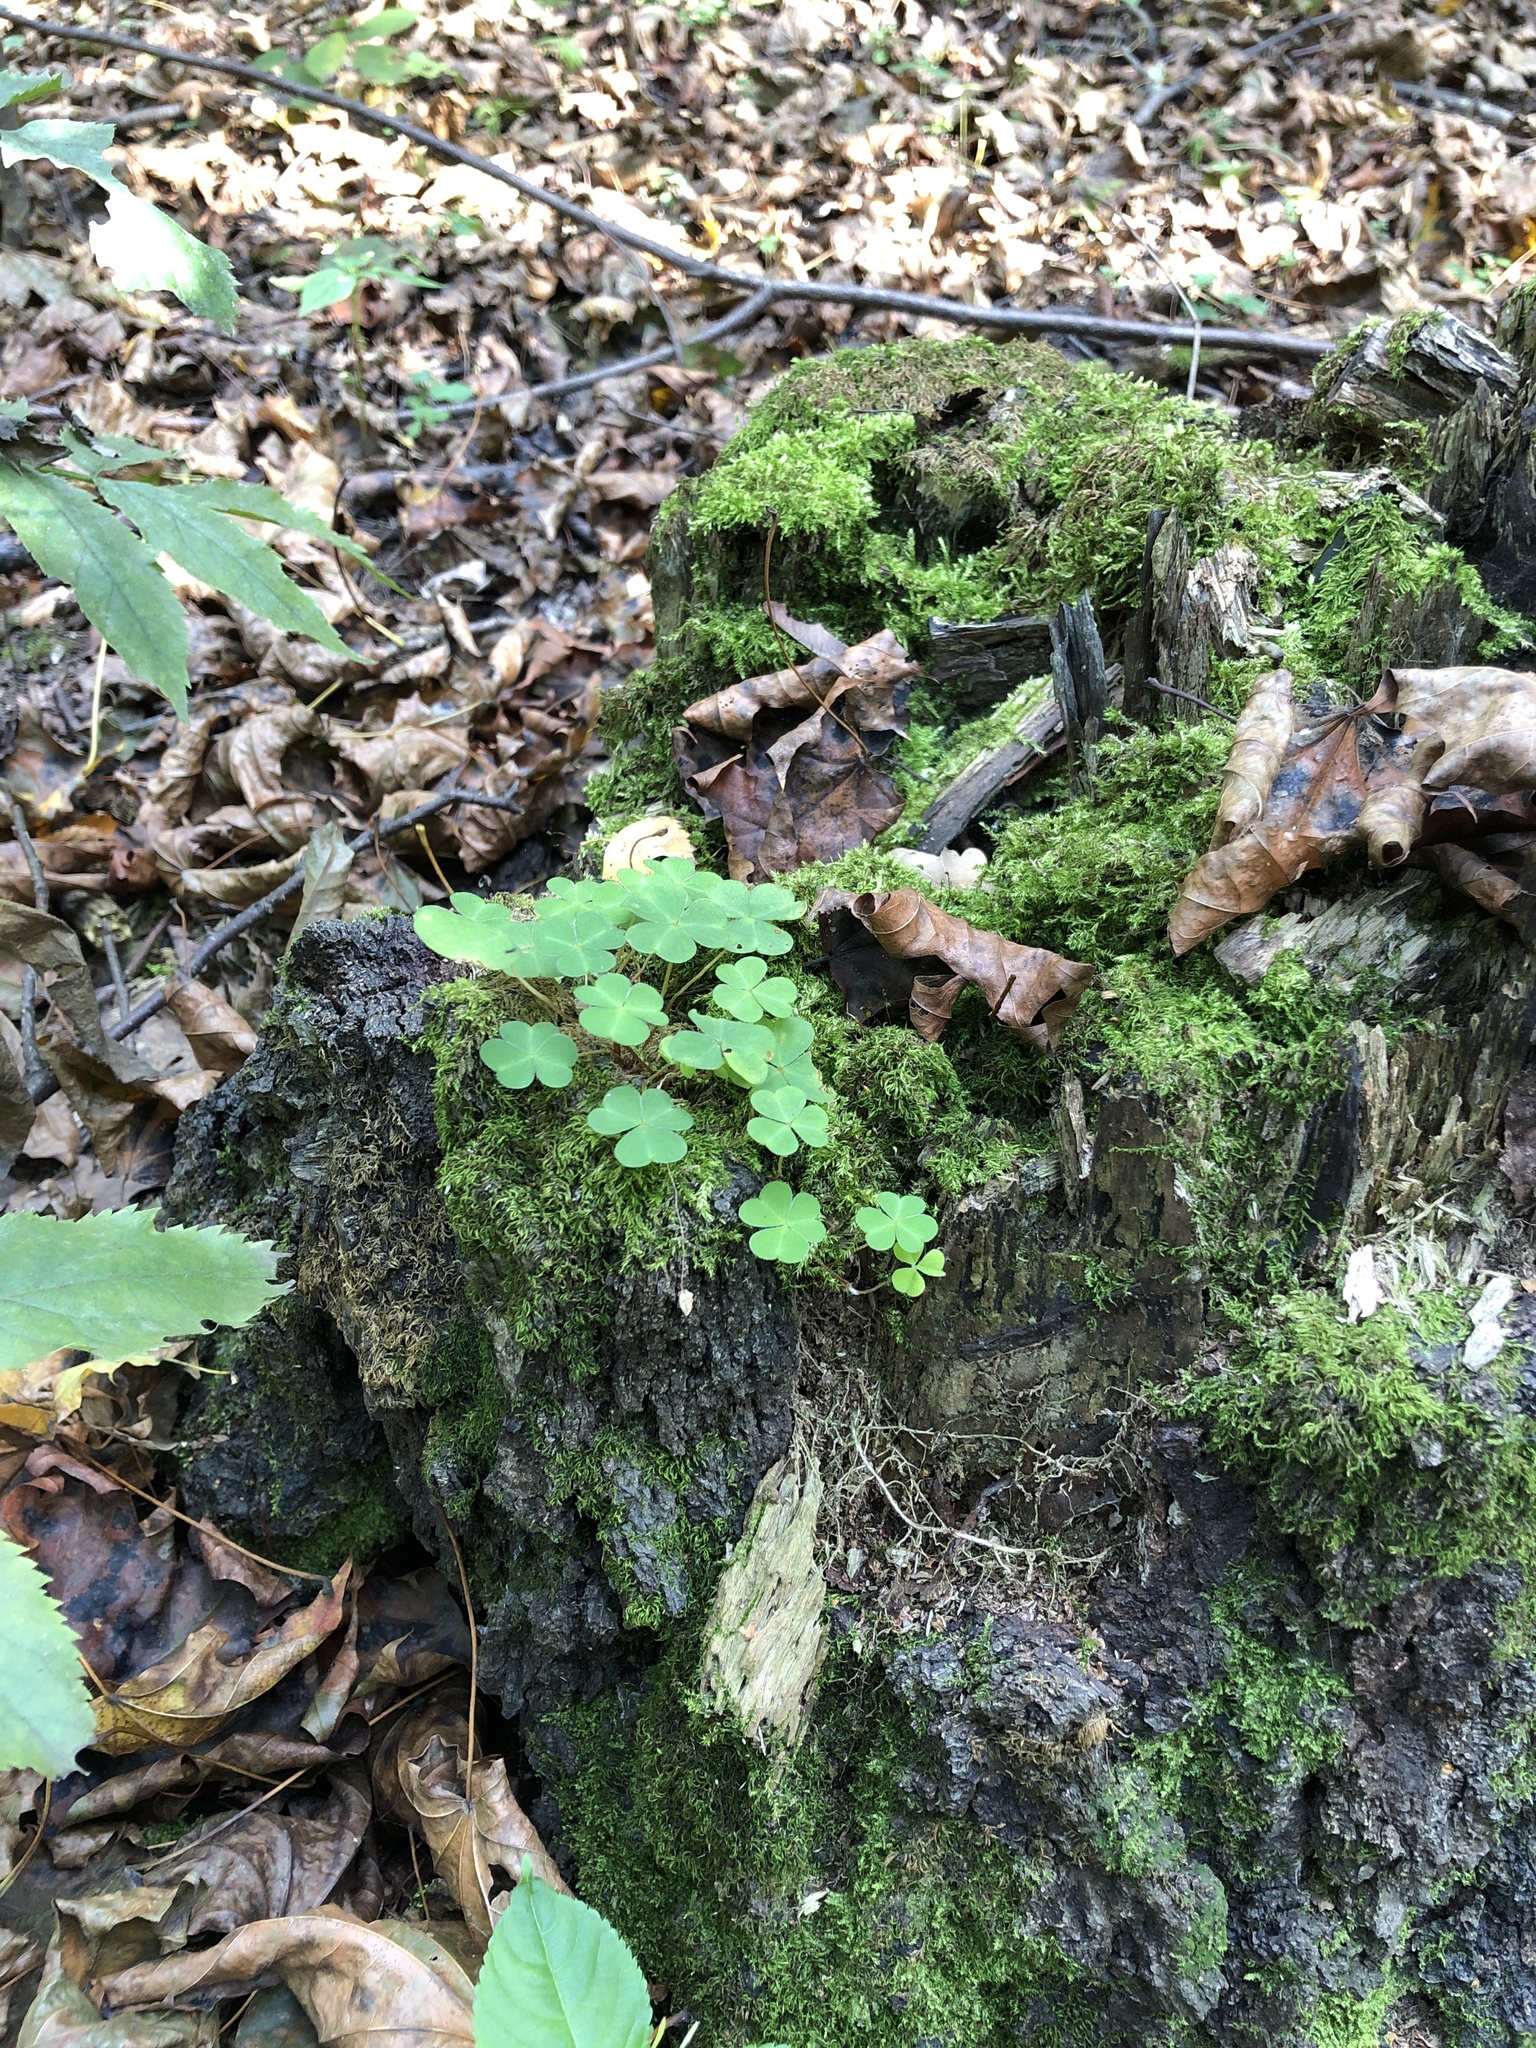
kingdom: Plantae
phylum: Tracheophyta
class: Magnoliopsida
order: Oxalidales
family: Oxalidaceae
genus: Oxalis
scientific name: Oxalis acetosella
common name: Wood-sorrel
